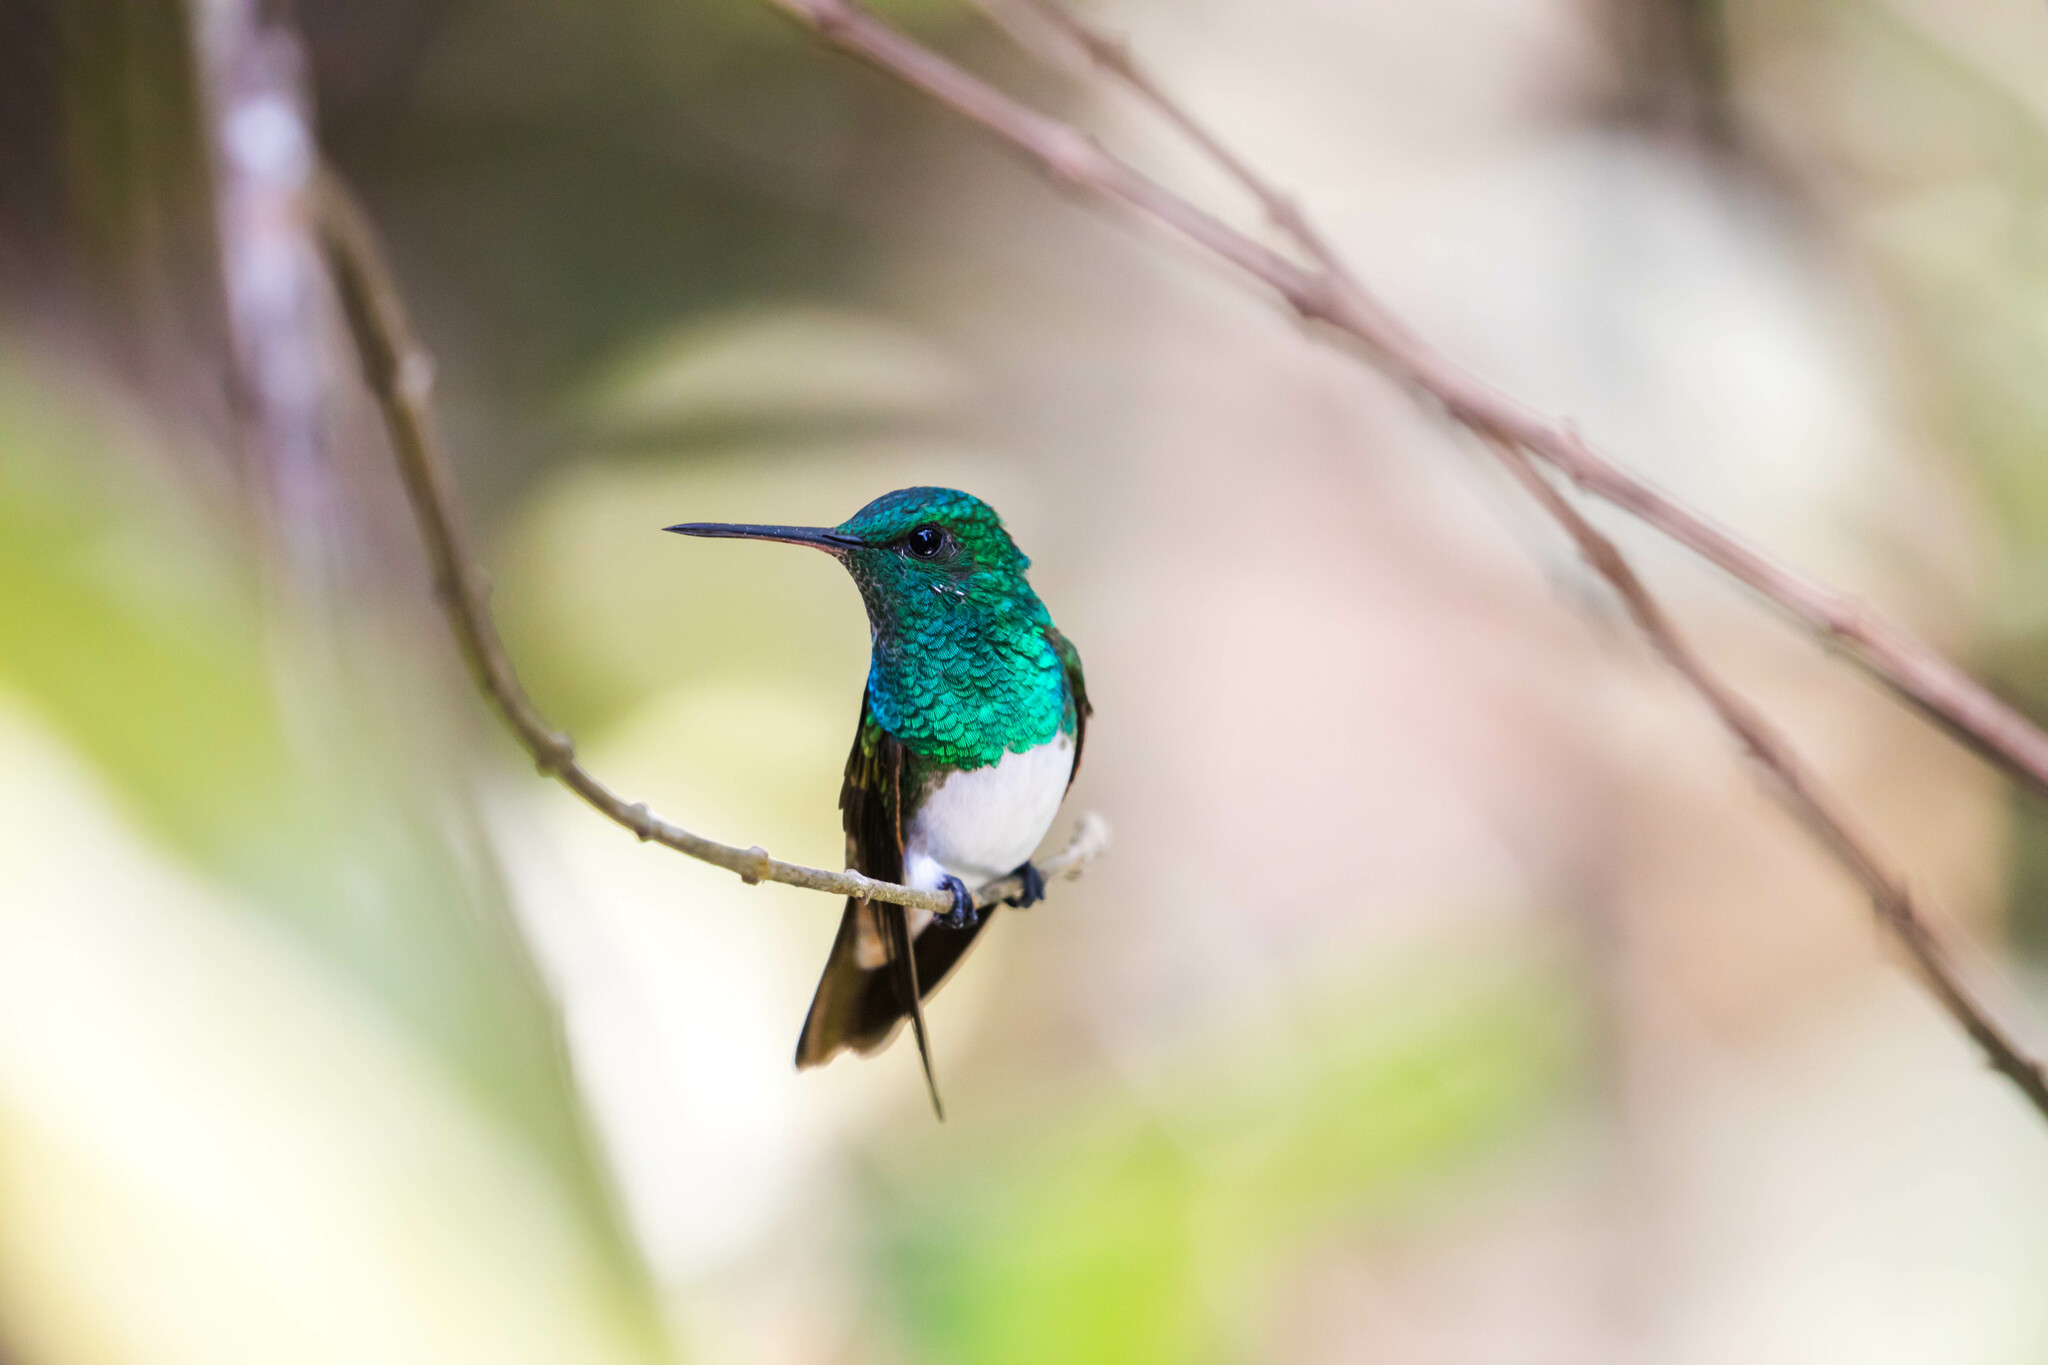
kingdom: Animalia
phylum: Chordata
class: Aves
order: Apodiformes
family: Trochilidae
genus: Saucerottia
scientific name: Saucerottia edward
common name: Snowy-bellied hummingbird
